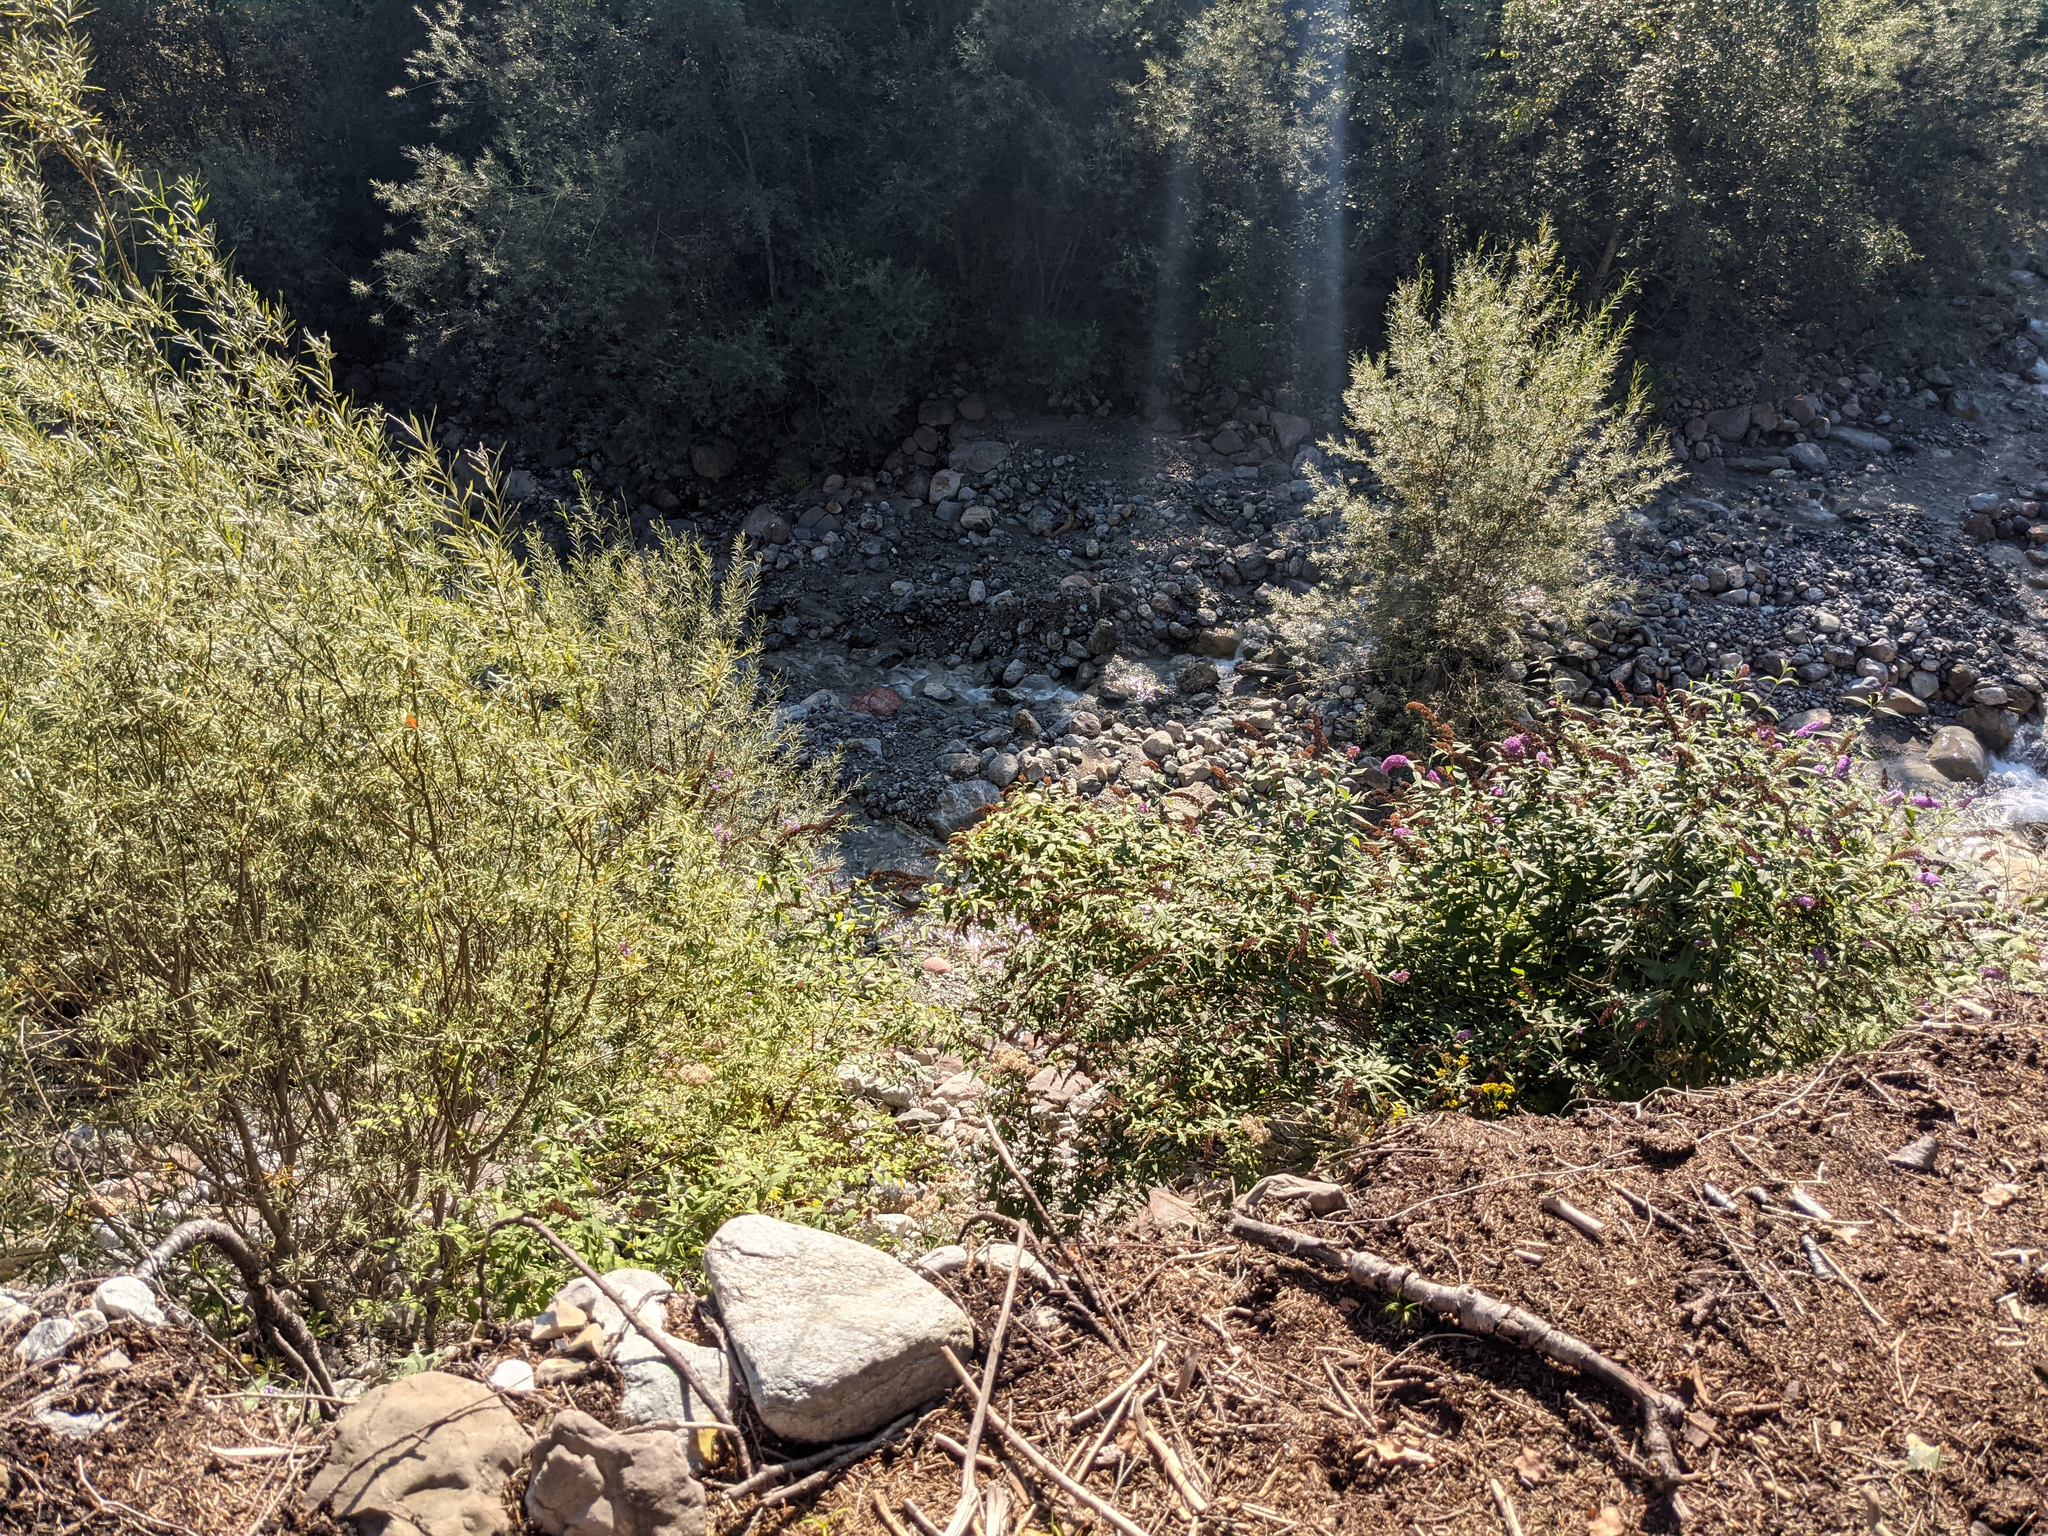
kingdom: Plantae
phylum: Tracheophyta
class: Magnoliopsida
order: Lamiales
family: Scrophulariaceae
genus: Buddleja
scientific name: Buddleja davidii
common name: Butterfly-bush
